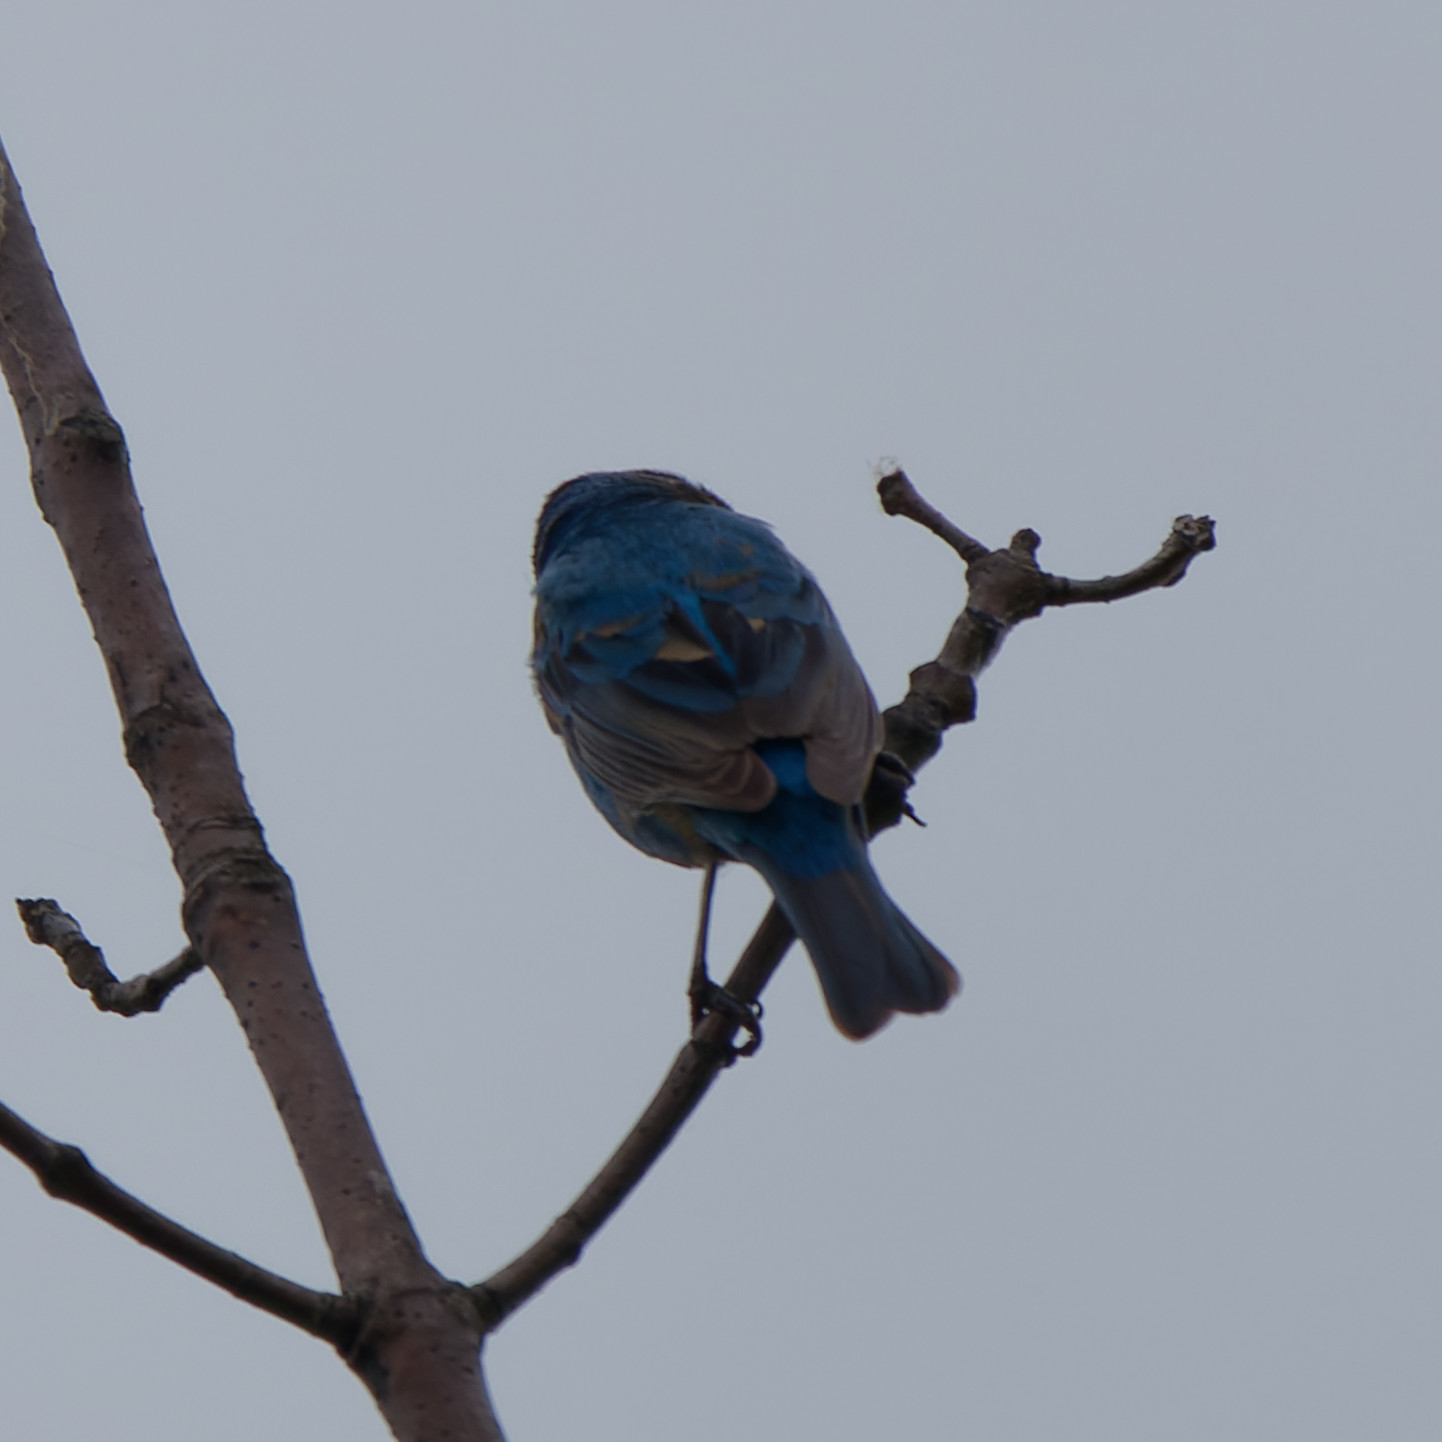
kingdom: Animalia
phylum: Chordata
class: Aves
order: Passeriformes
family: Cardinalidae
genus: Passerina
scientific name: Passerina cyanea
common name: Indigo bunting
